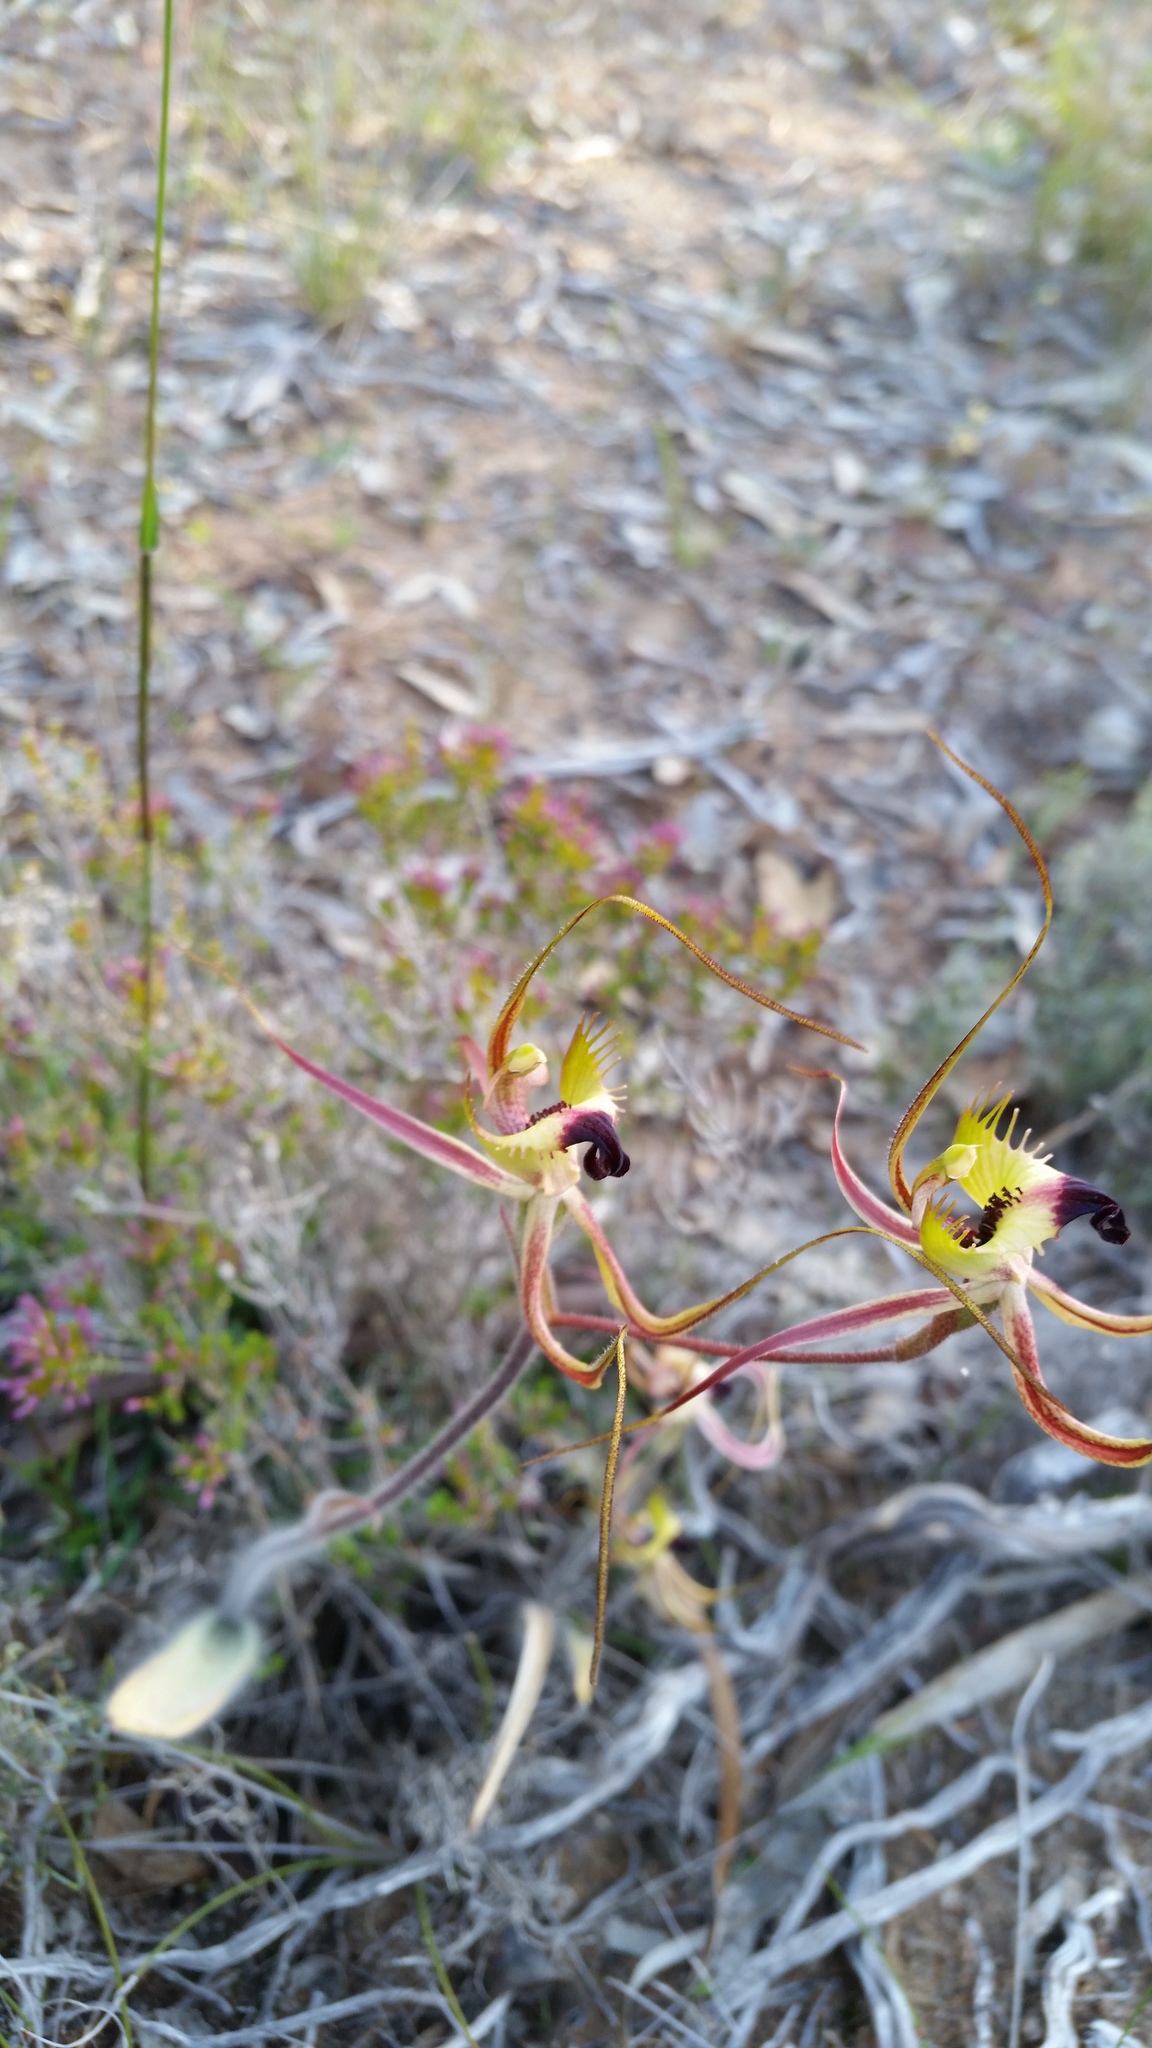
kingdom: Plantae
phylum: Tracheophyta
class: Liliopsida
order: Asparagales
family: Orchidaceae
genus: Caladenia
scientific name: Caladenia falcata
